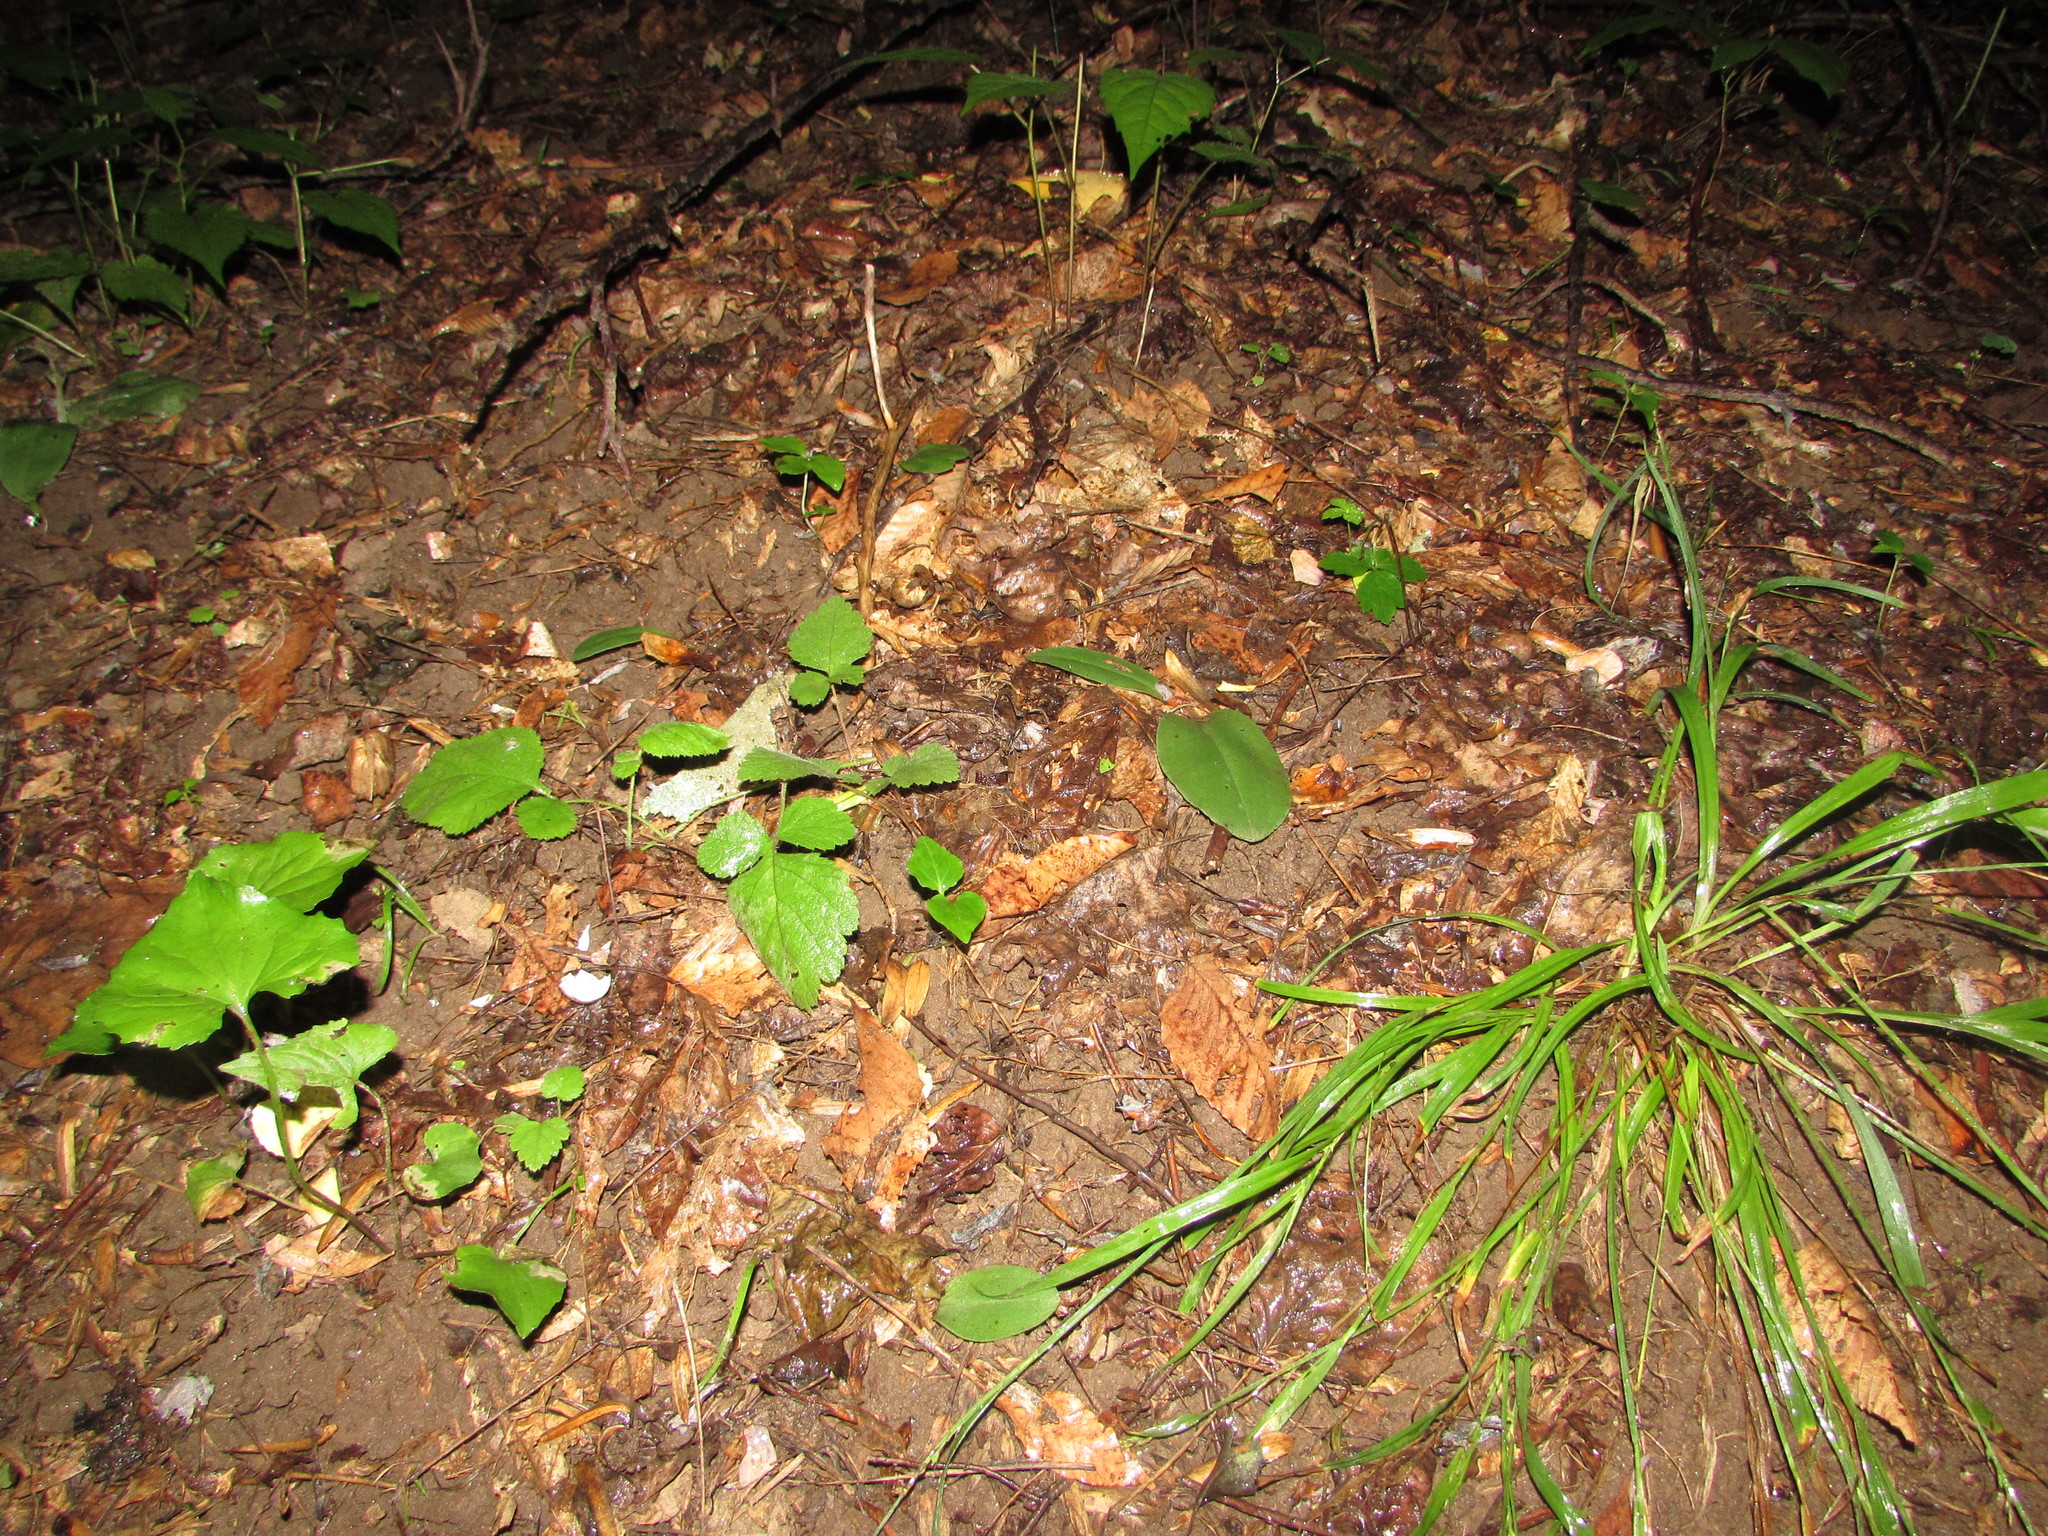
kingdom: Plantae
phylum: Tracheophyta
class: Liliopsida
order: Asparagales
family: Orchidaceae
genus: Galearis
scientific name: Galearis spectabilis
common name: Purple-hooded orchis
